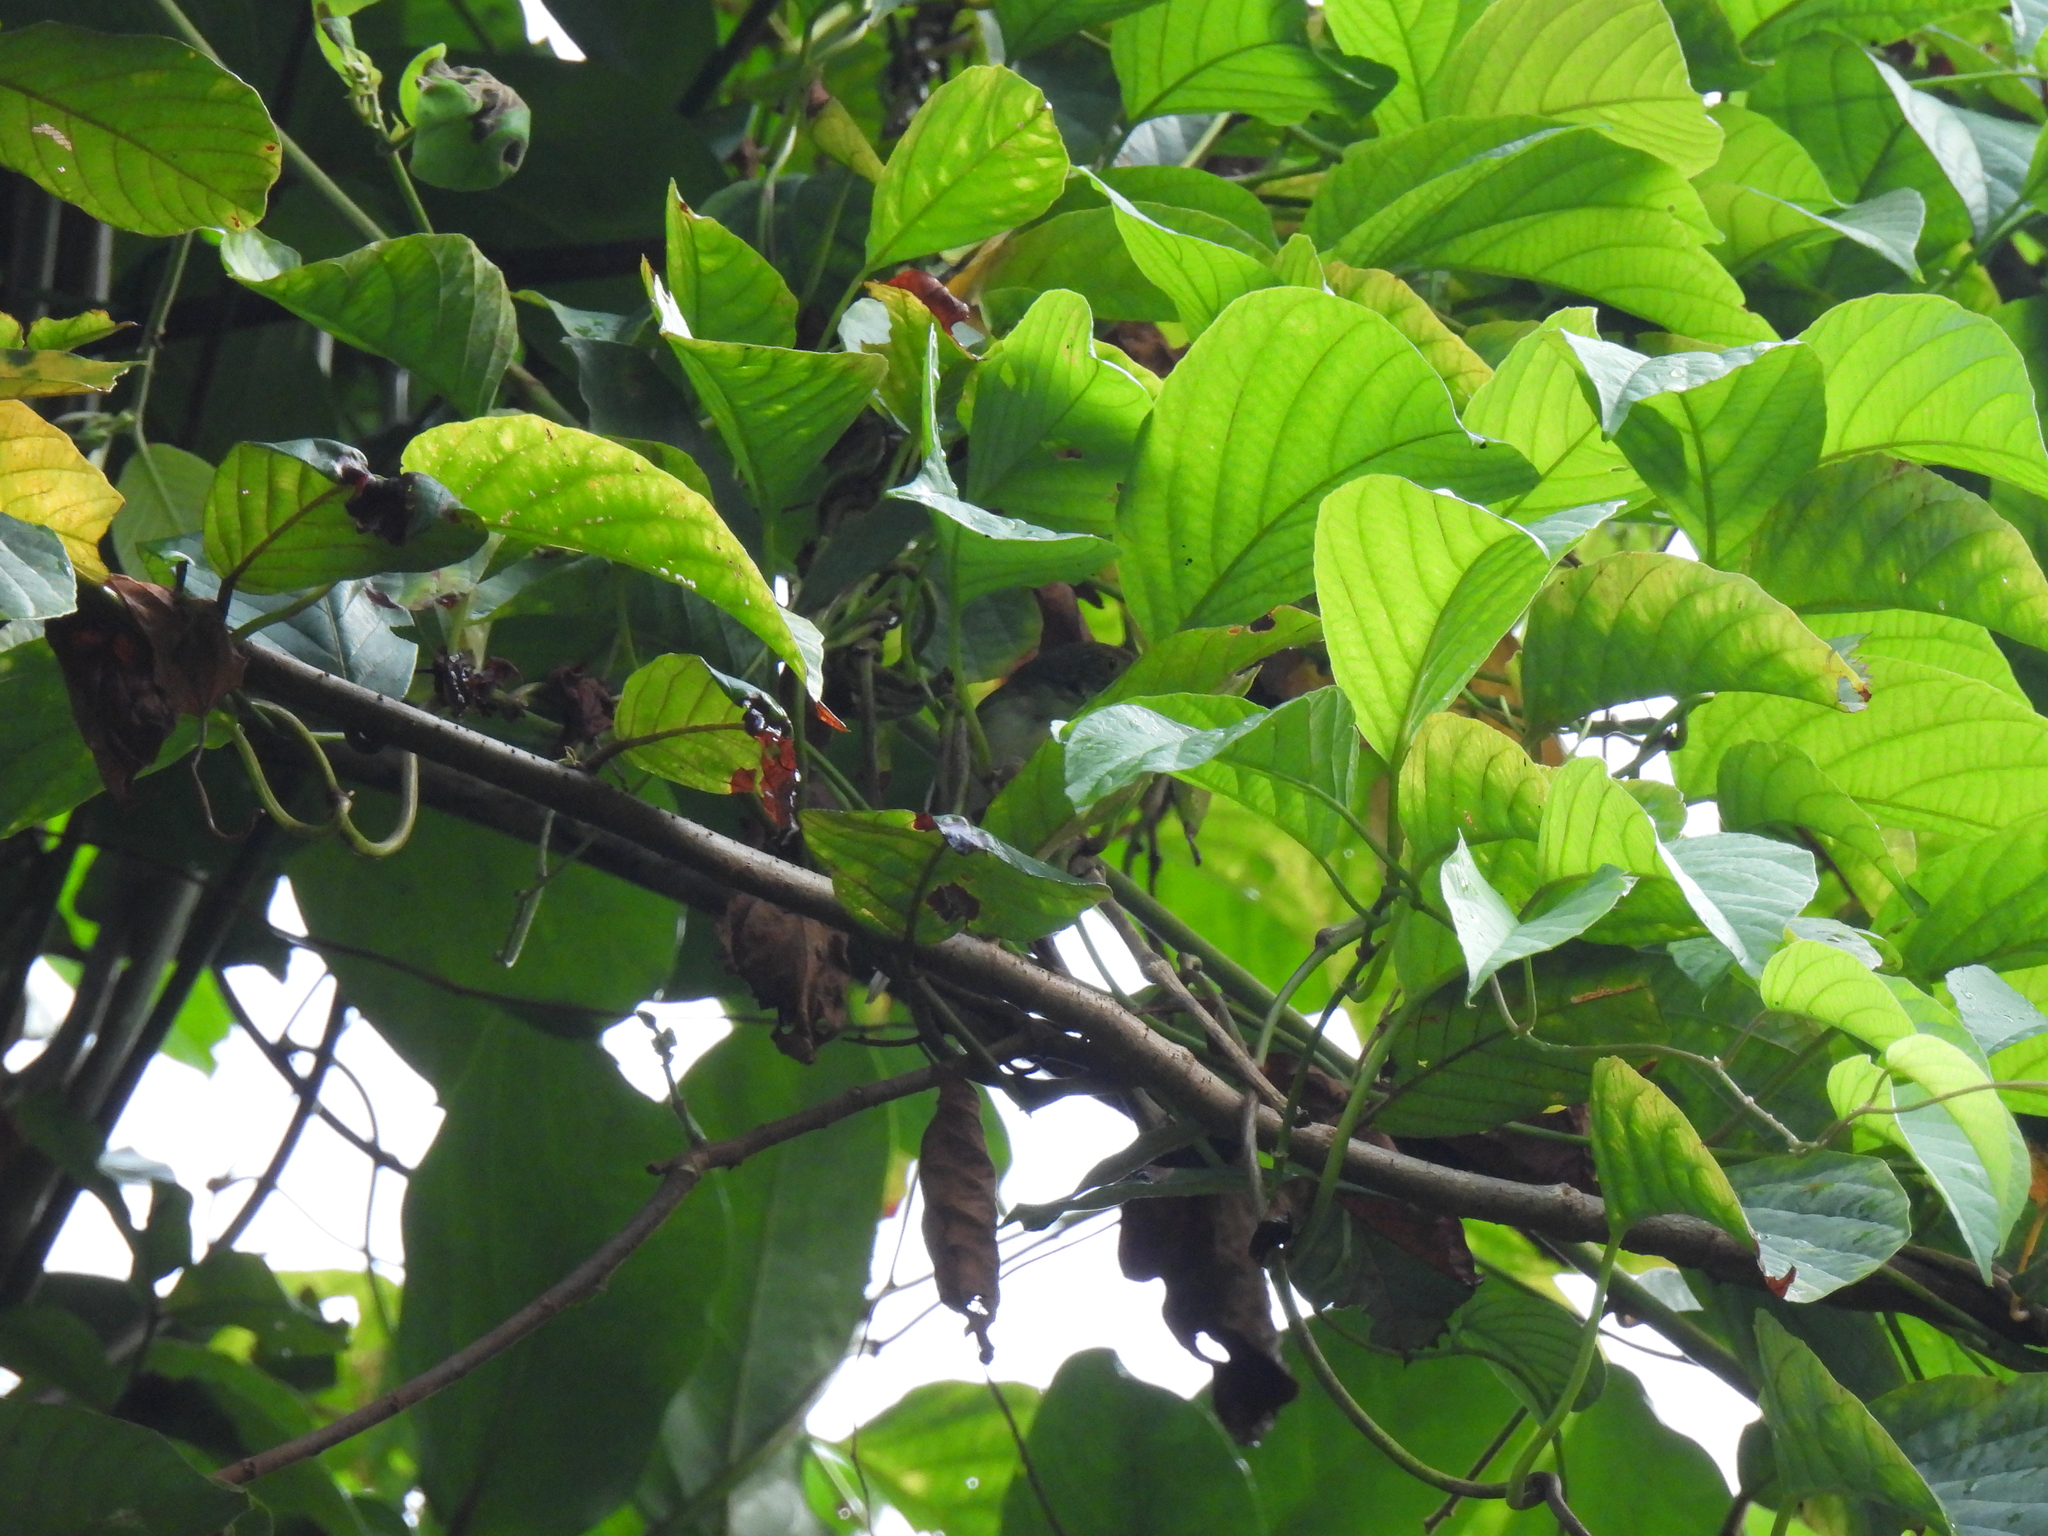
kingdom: Animalia
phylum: Chordata
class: Aves
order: Passeriformes
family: Cisticolidae
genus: Orthotomus
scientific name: Orthotomus sutorius
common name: Common tailorbird
